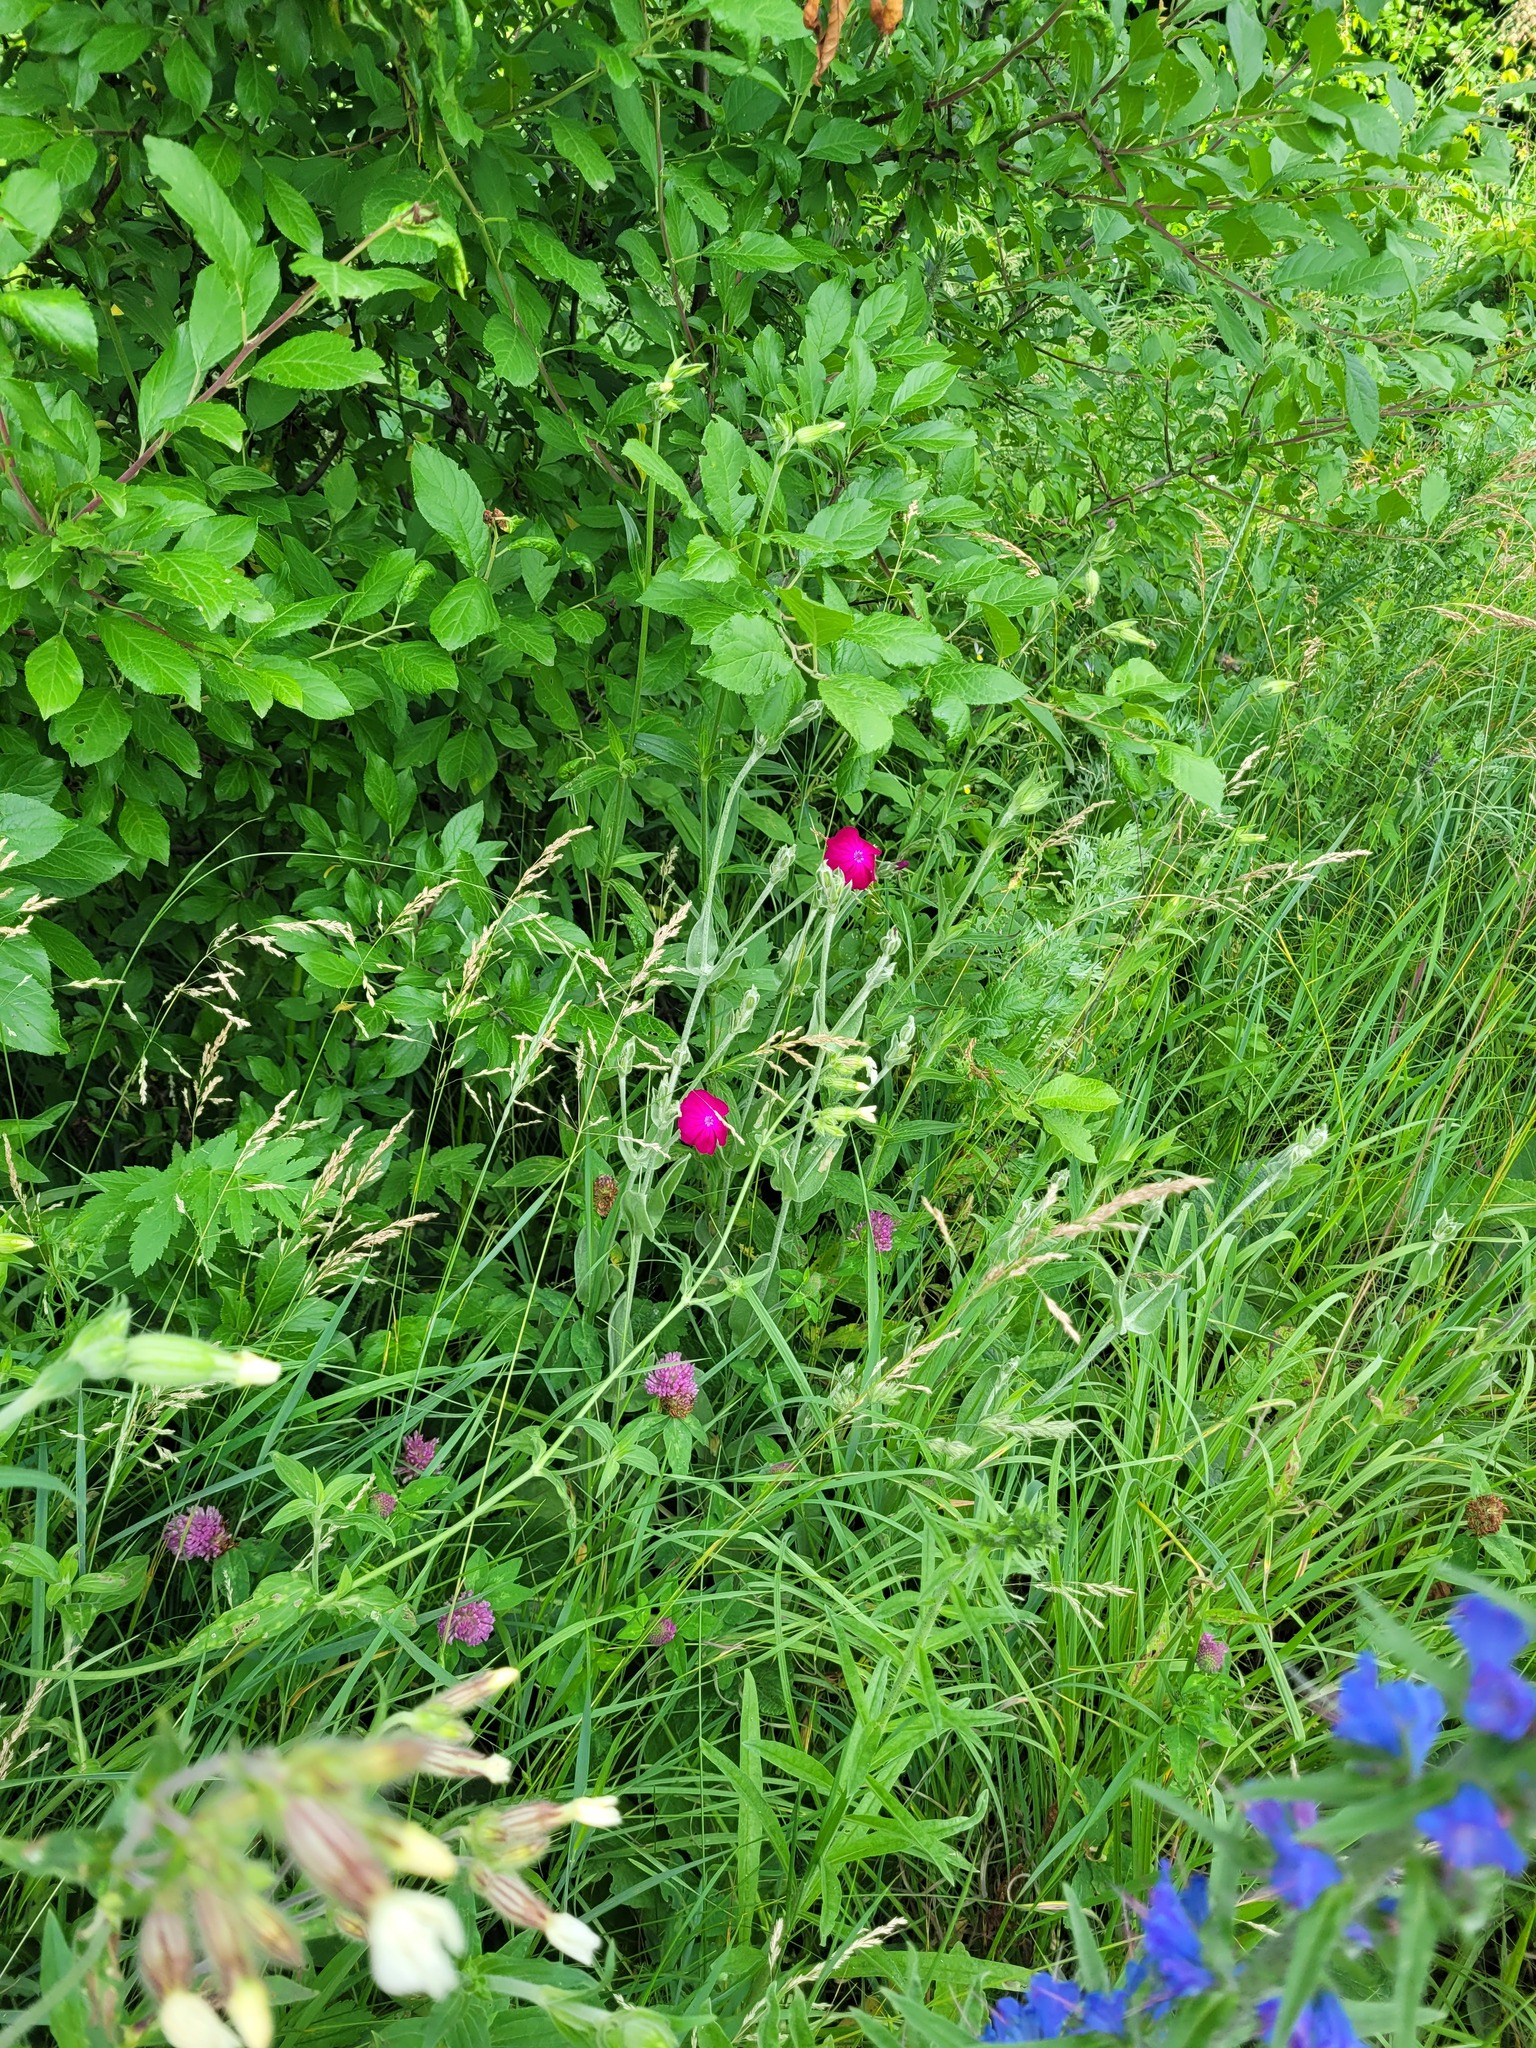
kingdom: Plantae
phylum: Tracheophyta
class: Magnoliopsida
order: Caryophyllales
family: Caryophyllaceae
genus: Silene
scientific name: Silene coronaria
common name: Rose campion
